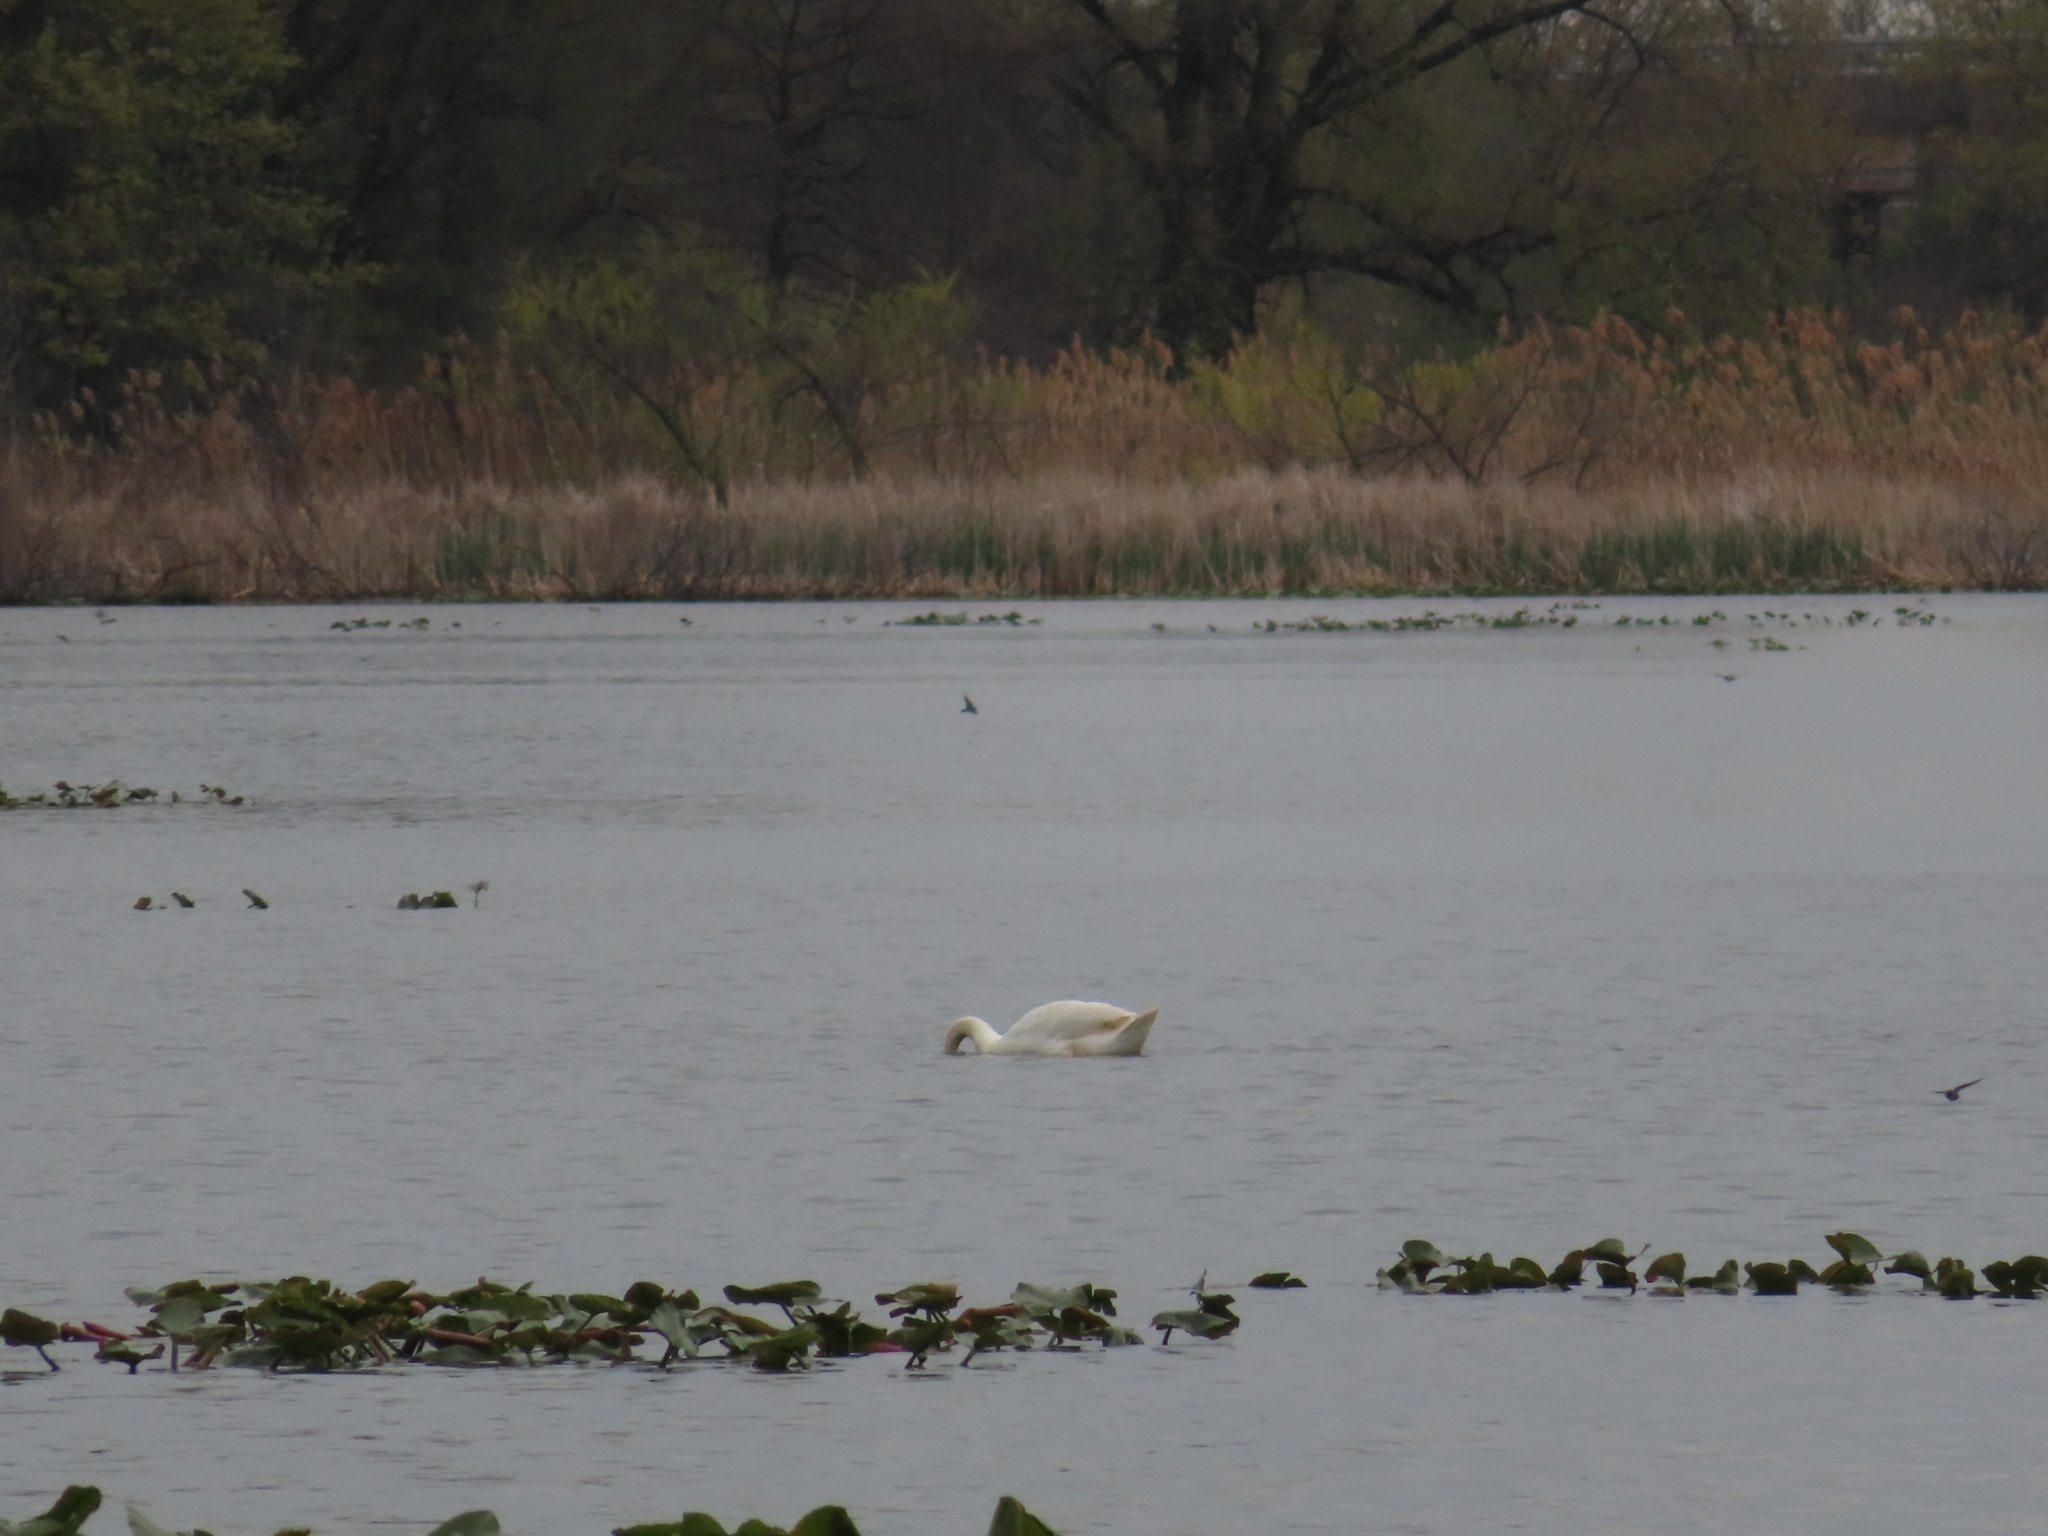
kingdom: Animalia
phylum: Chordata
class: Aves
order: Anseriformes
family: Anatidae
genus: Cygnus
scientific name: Cygnus olor
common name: Mute swan
